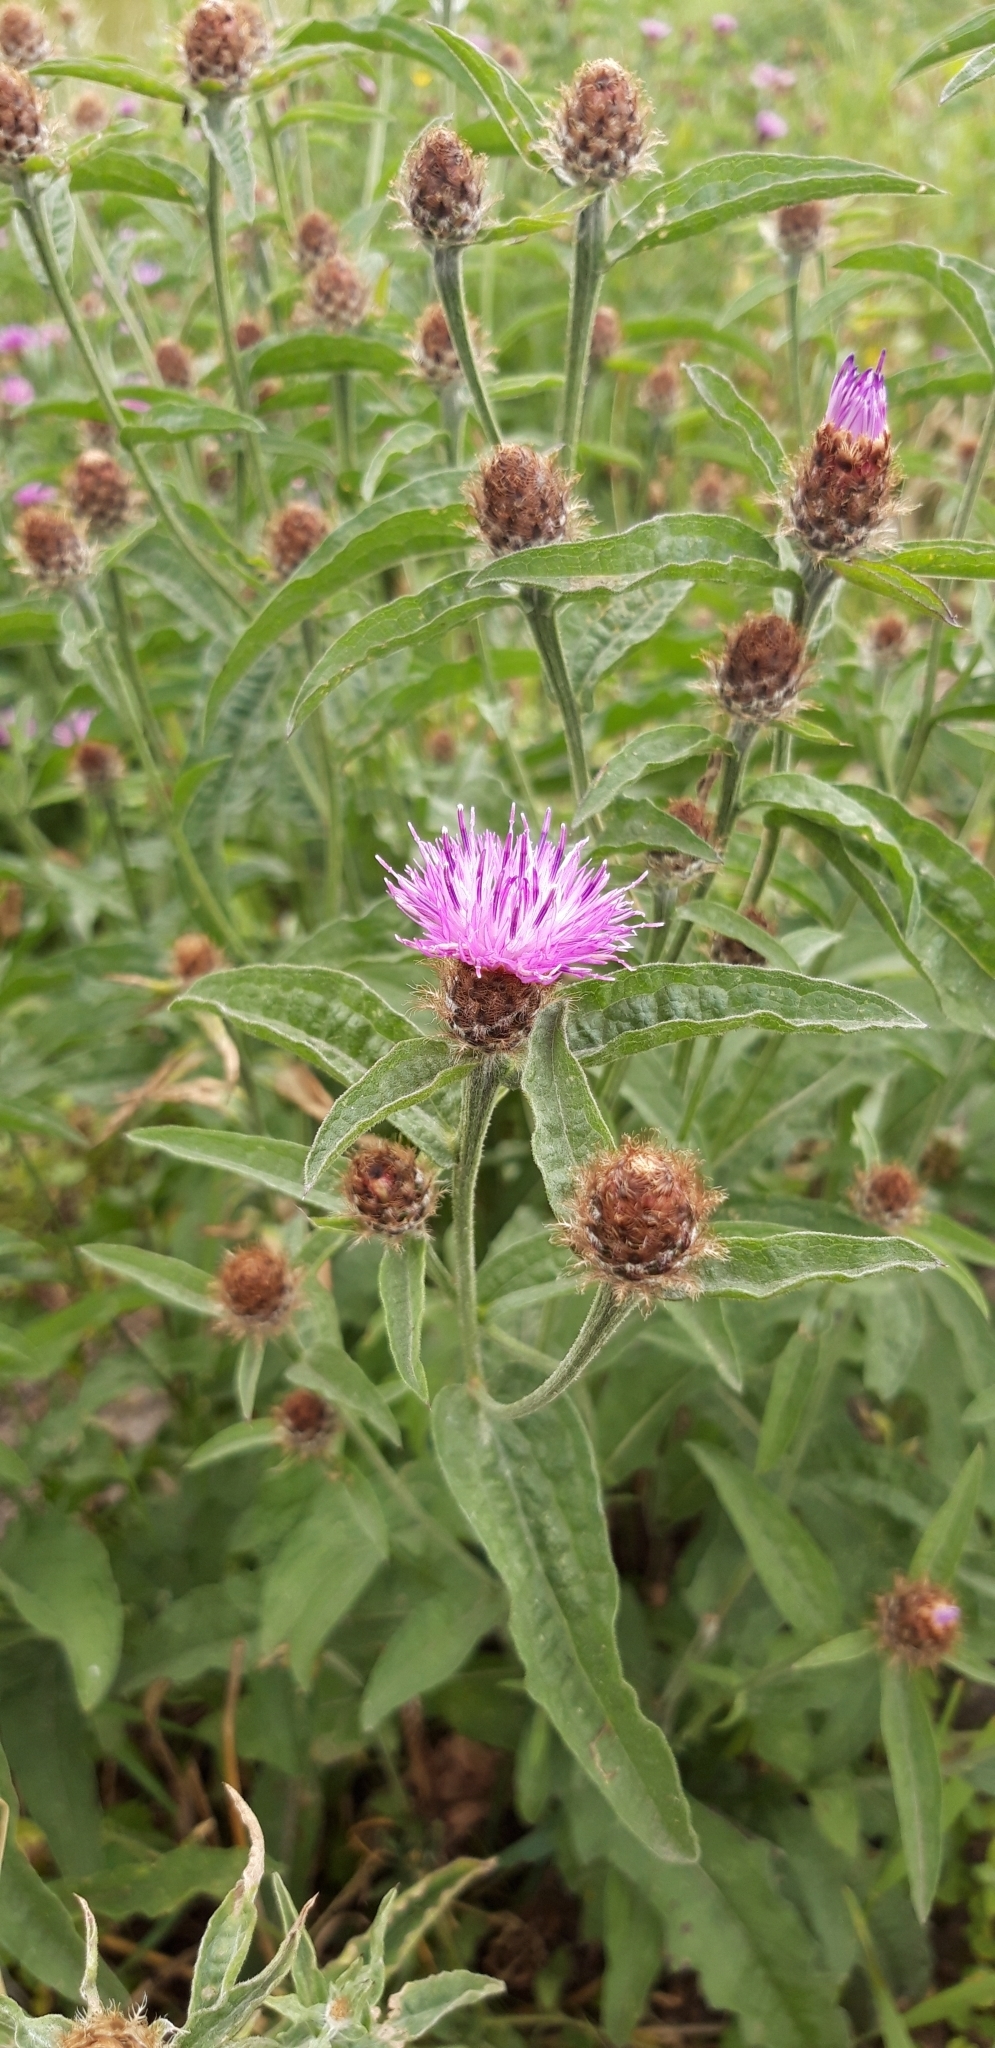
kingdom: Plantae
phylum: Tracheophyta
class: Magnoliopsida
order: Asterales
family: Asteraceae
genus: Centaurea
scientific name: Centaurea jacea
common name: Brown knapweed
